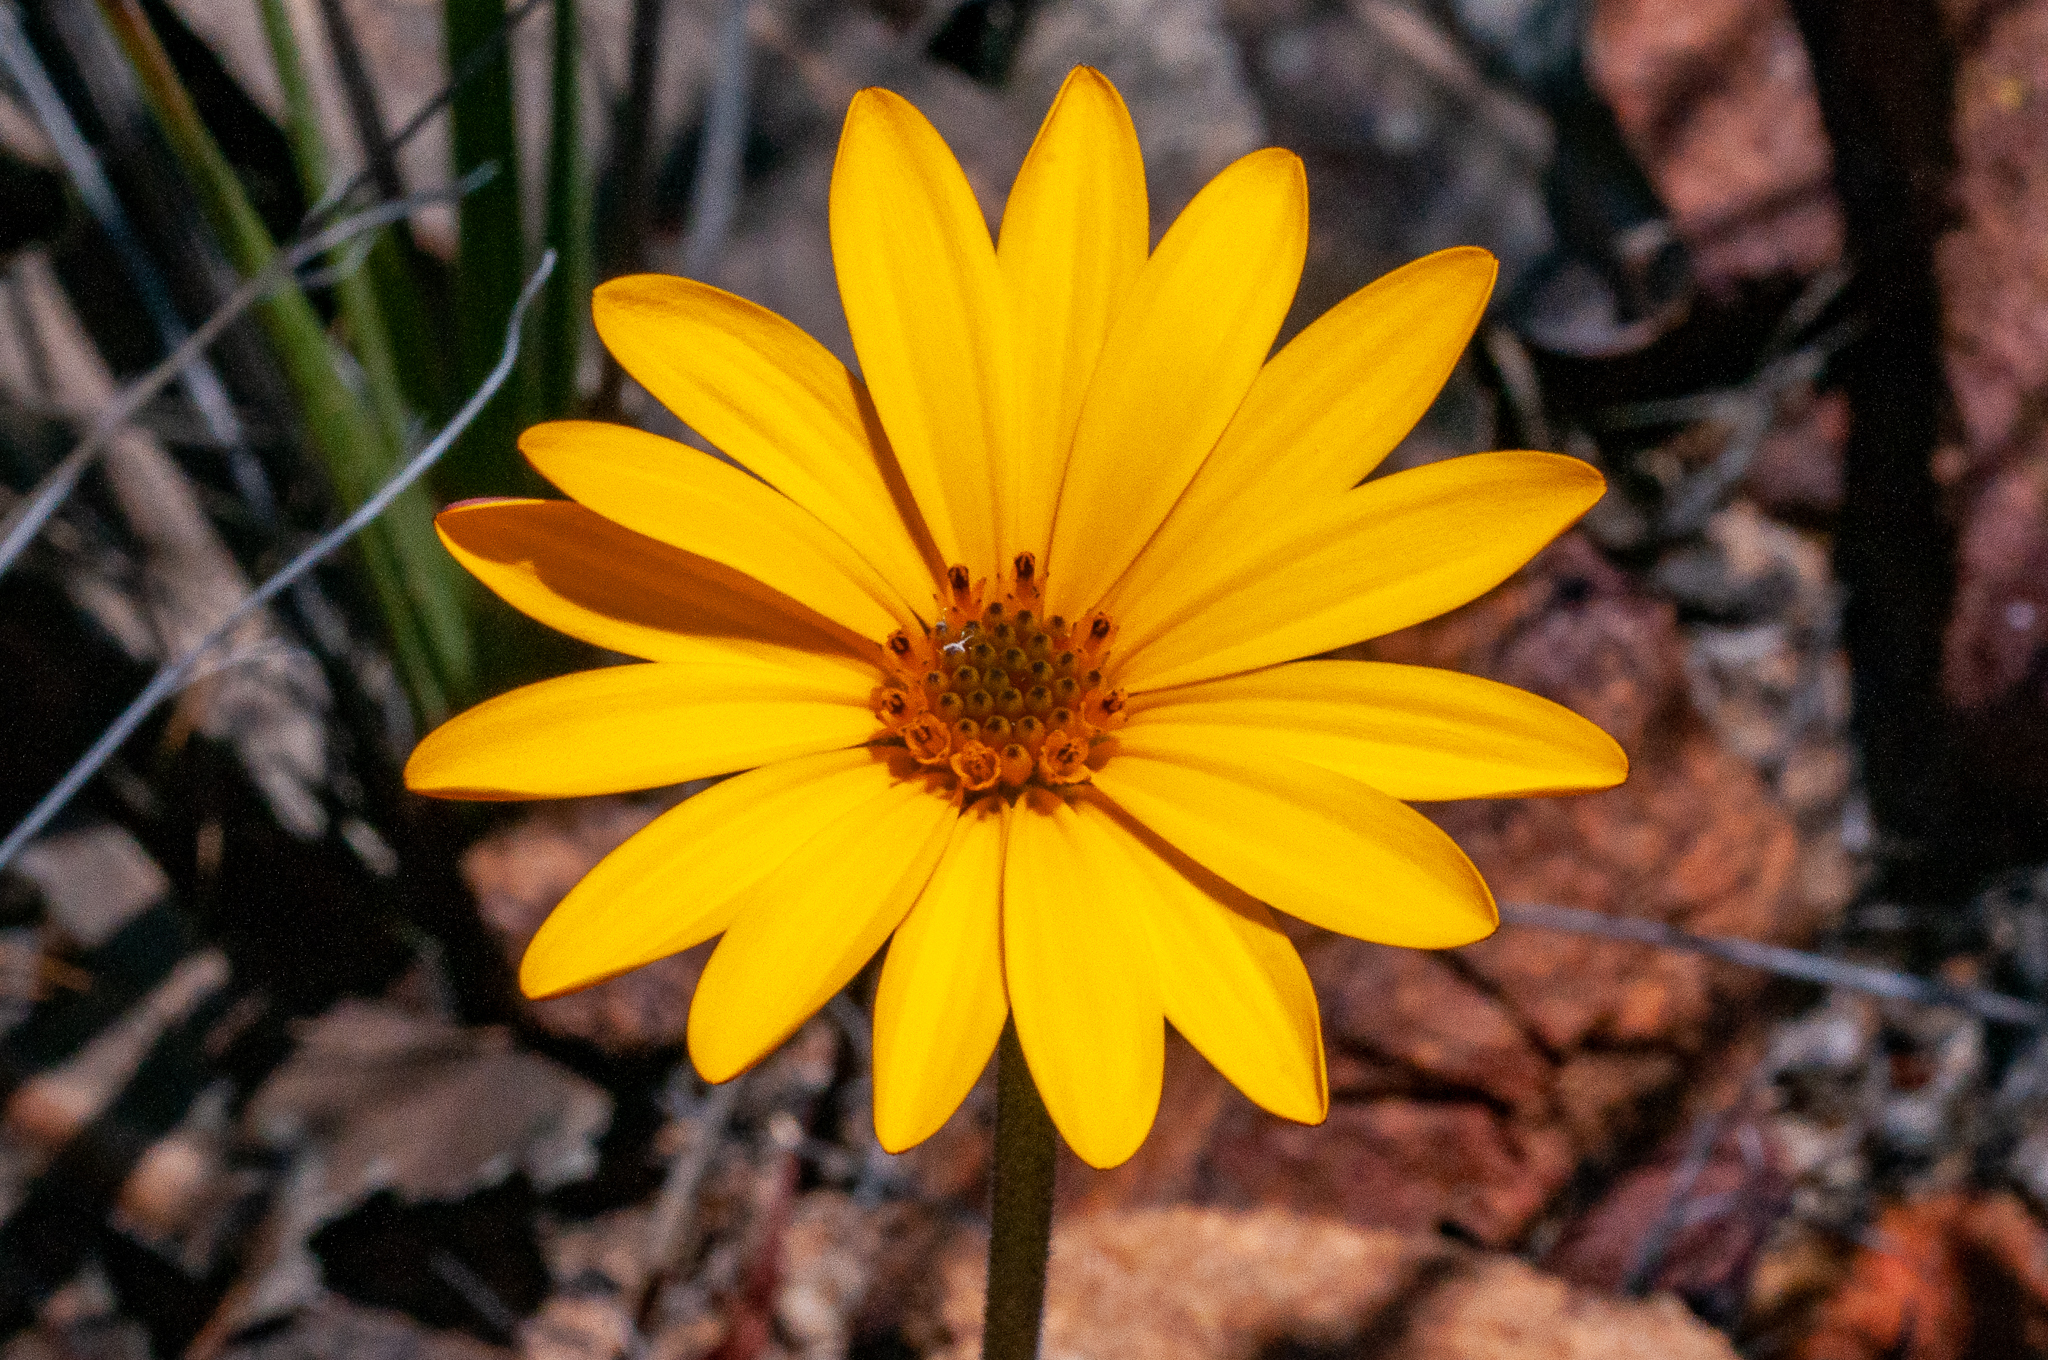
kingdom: Plantae
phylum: Tracheophyta
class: Magnoliopsida
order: Asterales
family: Asteraceae
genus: Dimorphotheca
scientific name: Dimorphotheca nudicaulis
